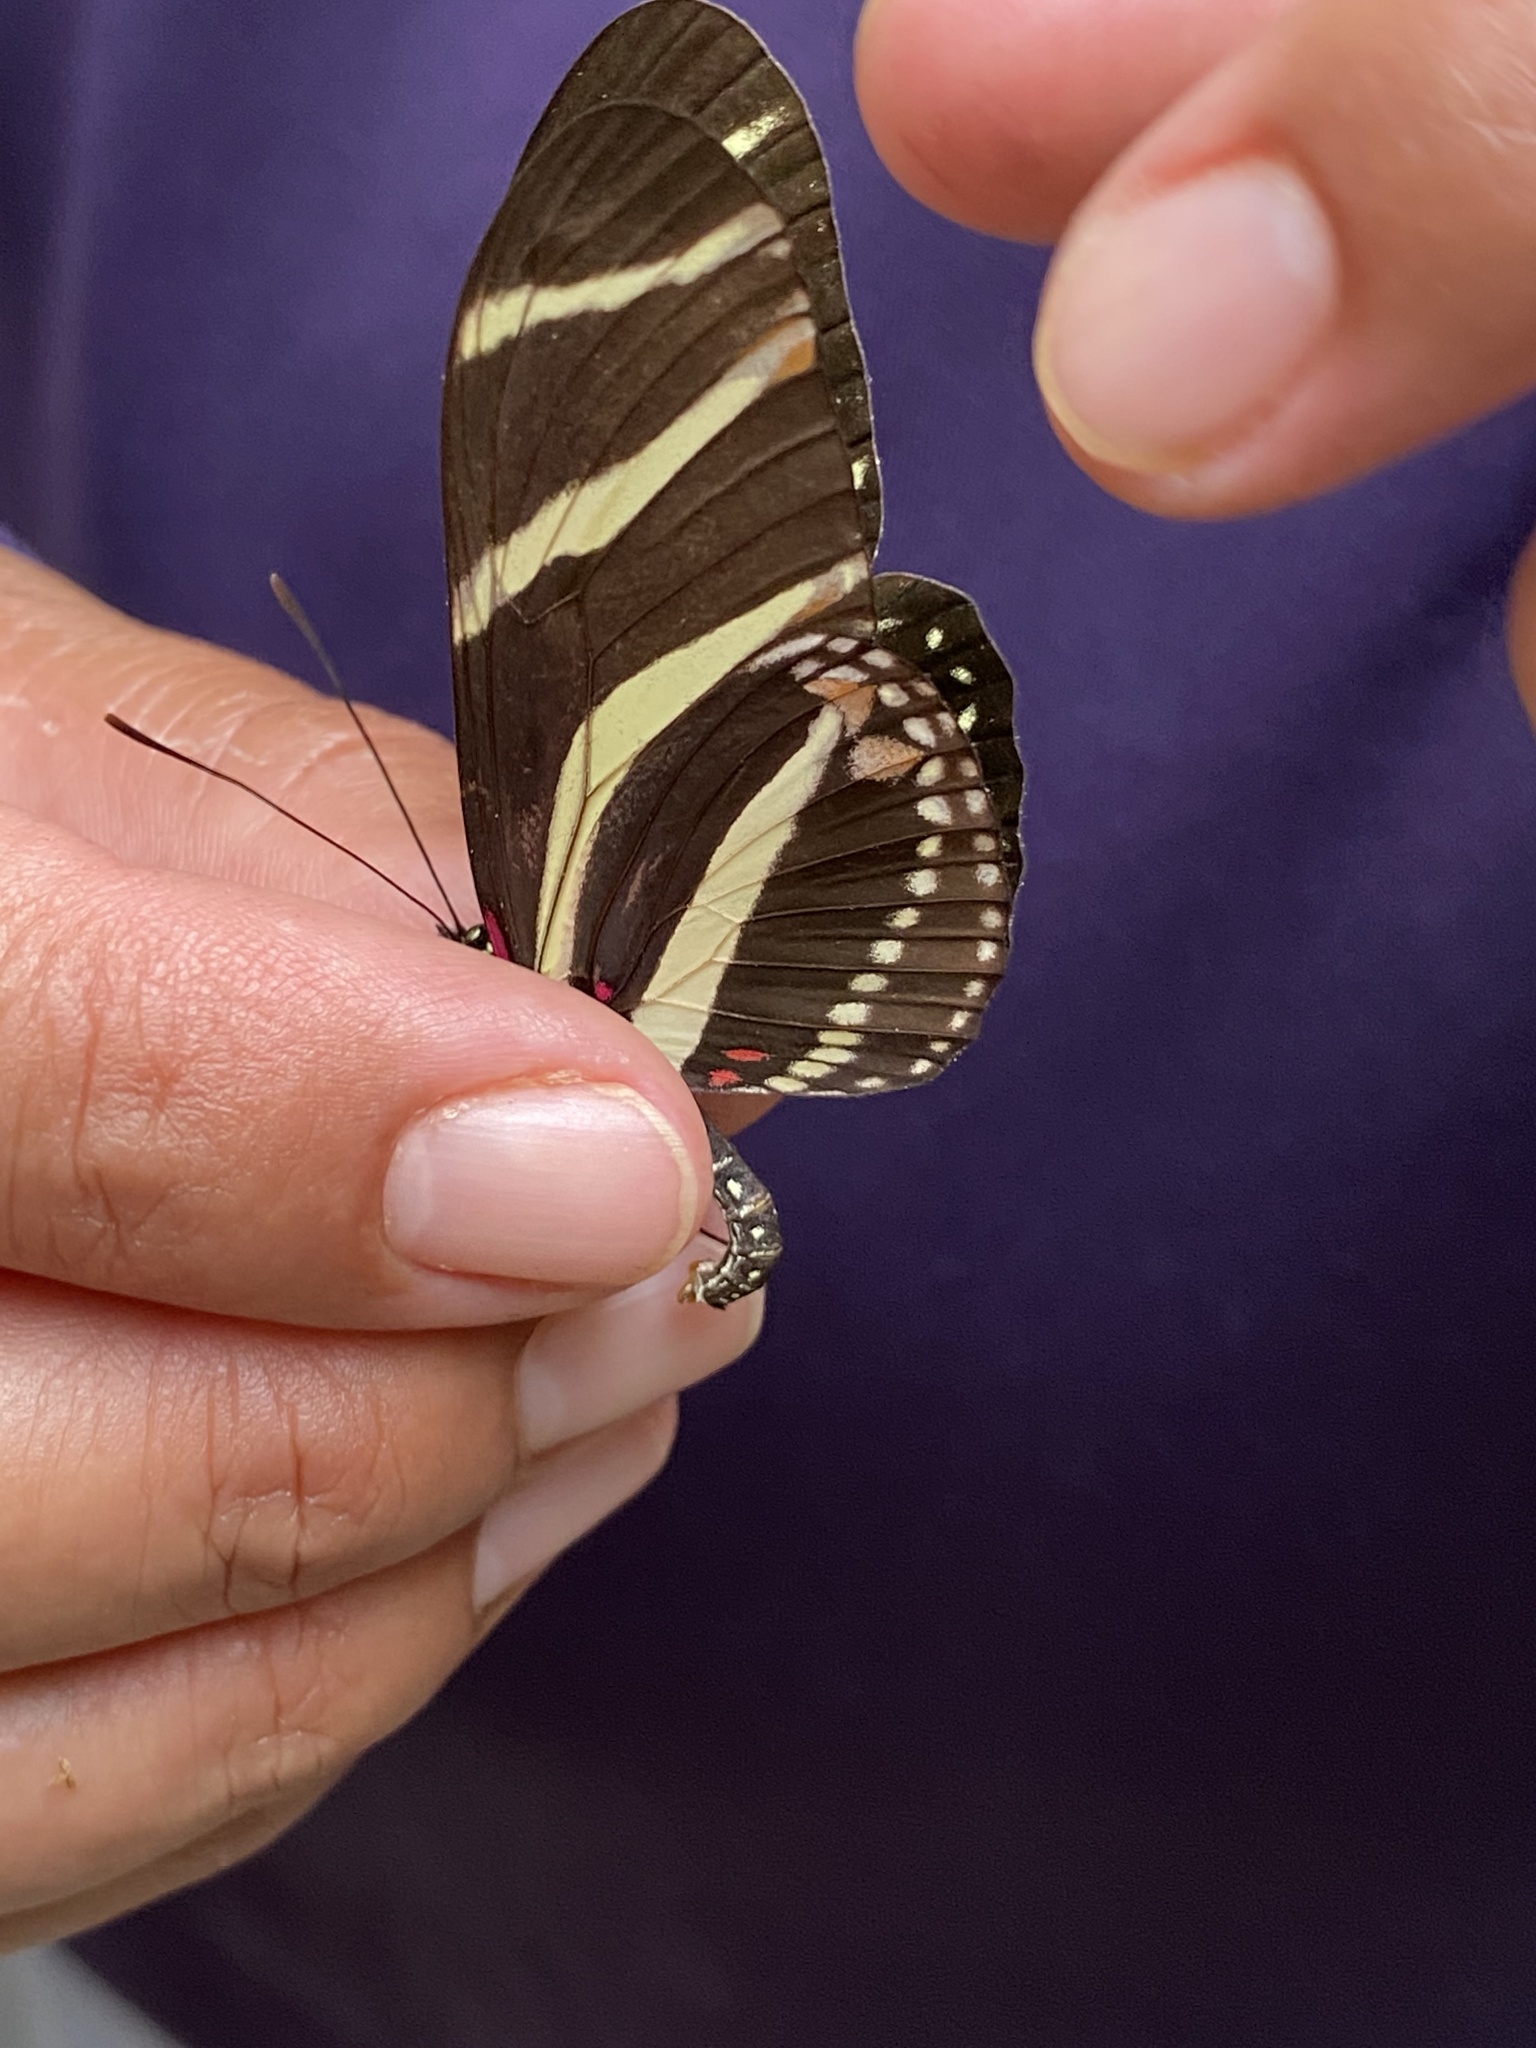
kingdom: Animalia
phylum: Arthropoda
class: Insecta
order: Lepidoptera
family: Nymphalidae
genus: Heliconius
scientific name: Heliconius charithonia
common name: Zebra long wing
